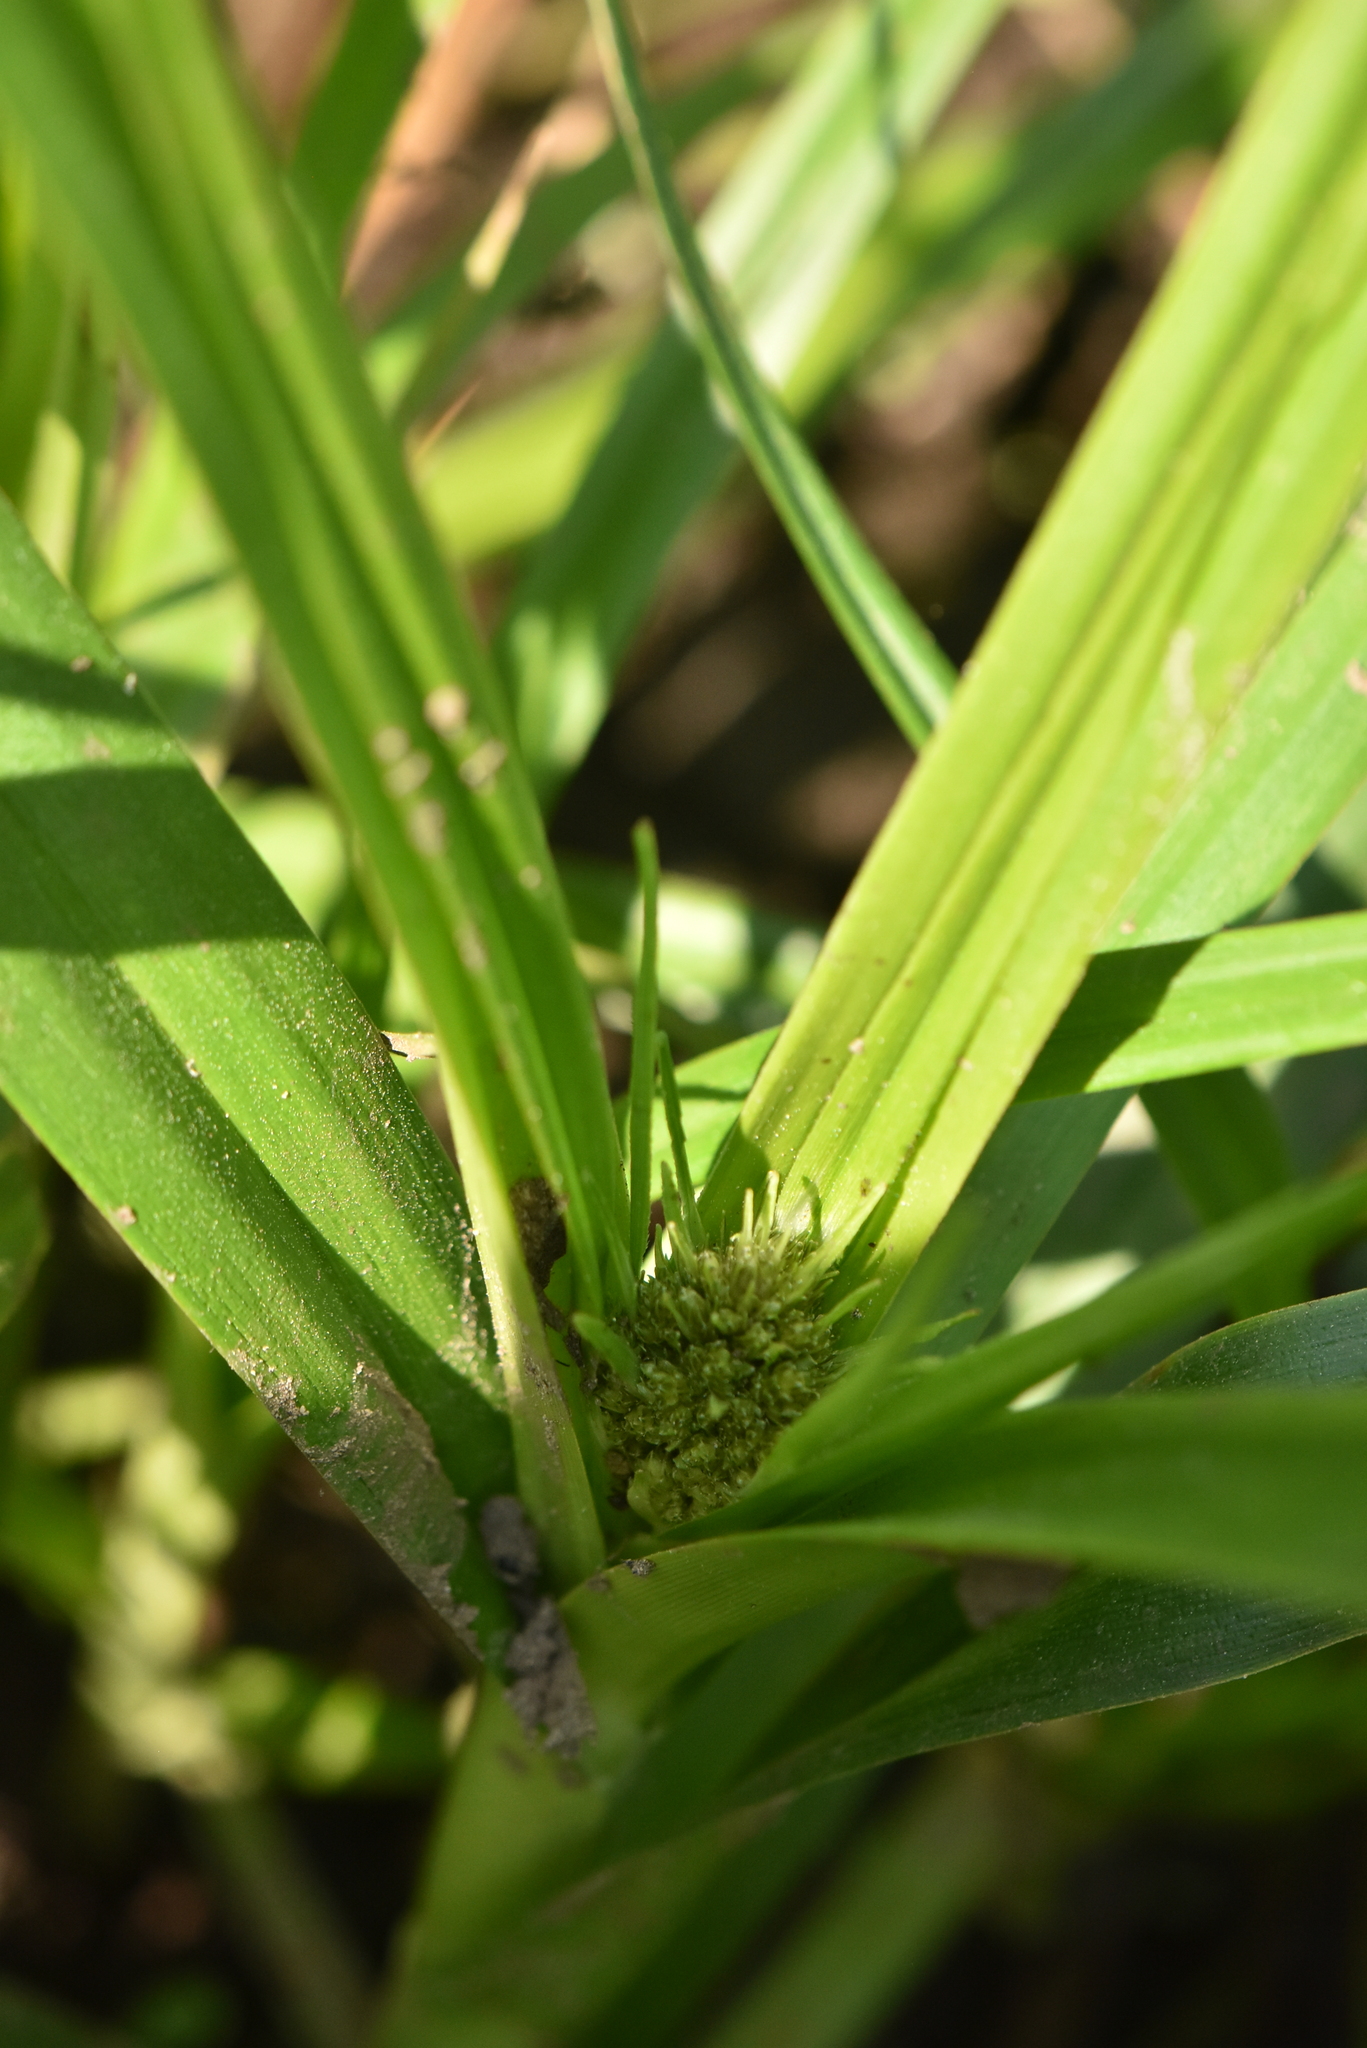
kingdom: Plantae
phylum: Tracheophyta
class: Liliopsida
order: Poales
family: Cyperaceae
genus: Scirpus
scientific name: Scirpus sylvaticus
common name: Wood club-rush
